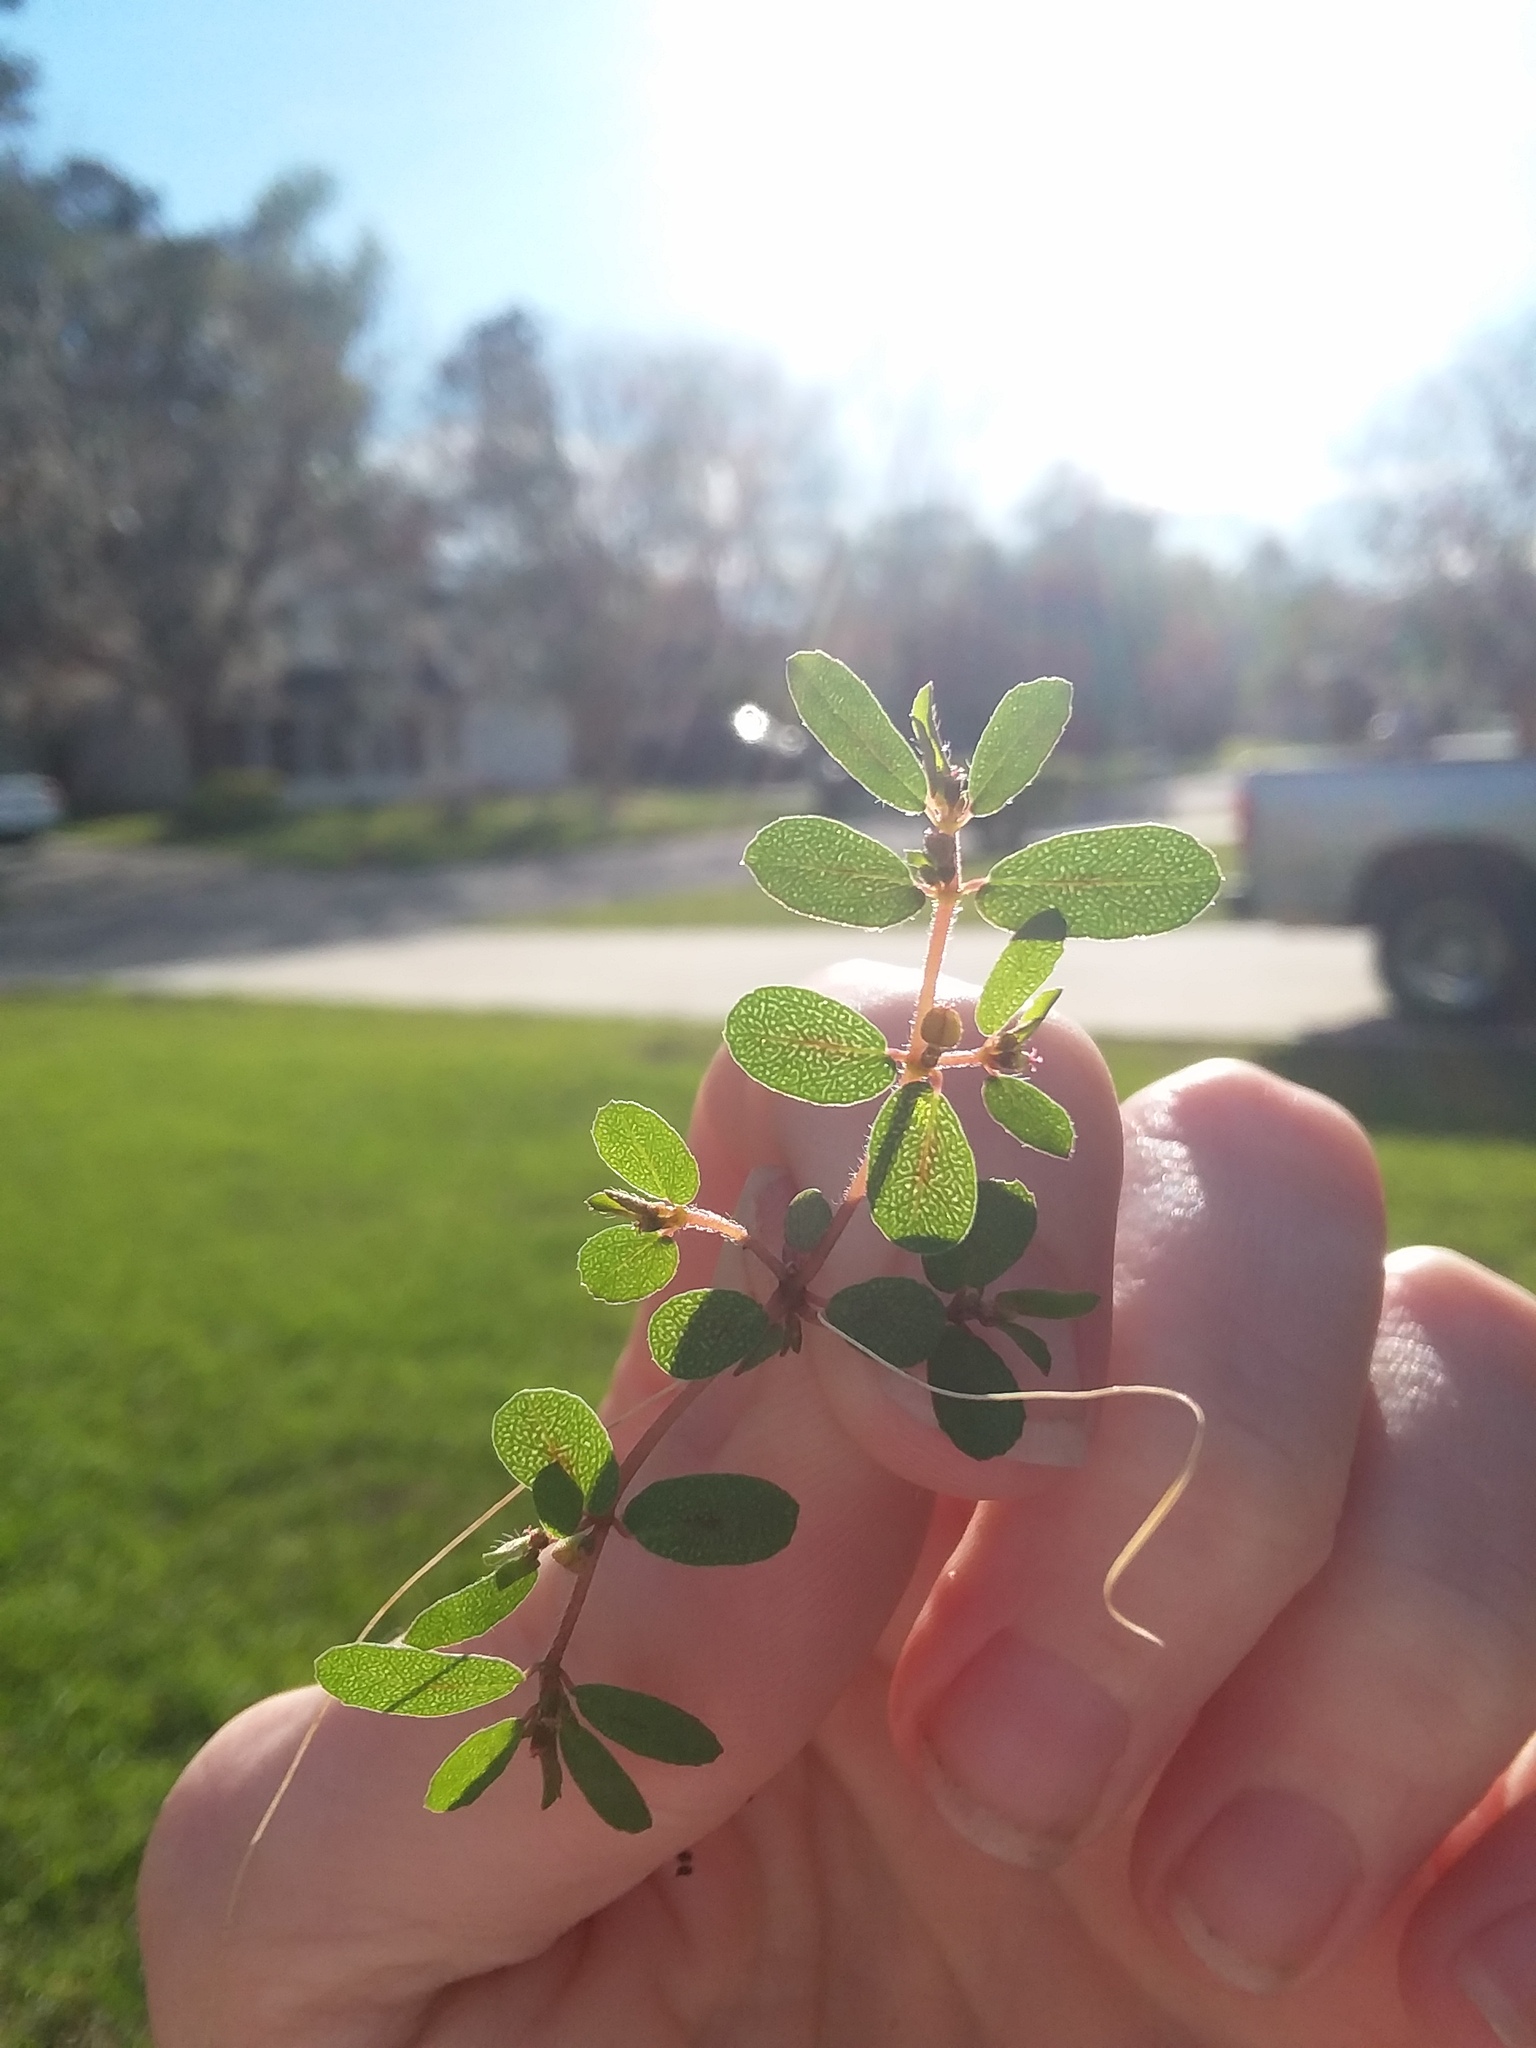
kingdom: Plantae
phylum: Tracheophyta
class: Magnoliopsida
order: Malpighiales
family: Euphorbiaceae
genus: Euphorbia
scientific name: Euphorbia maculata
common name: Spotted spurge
